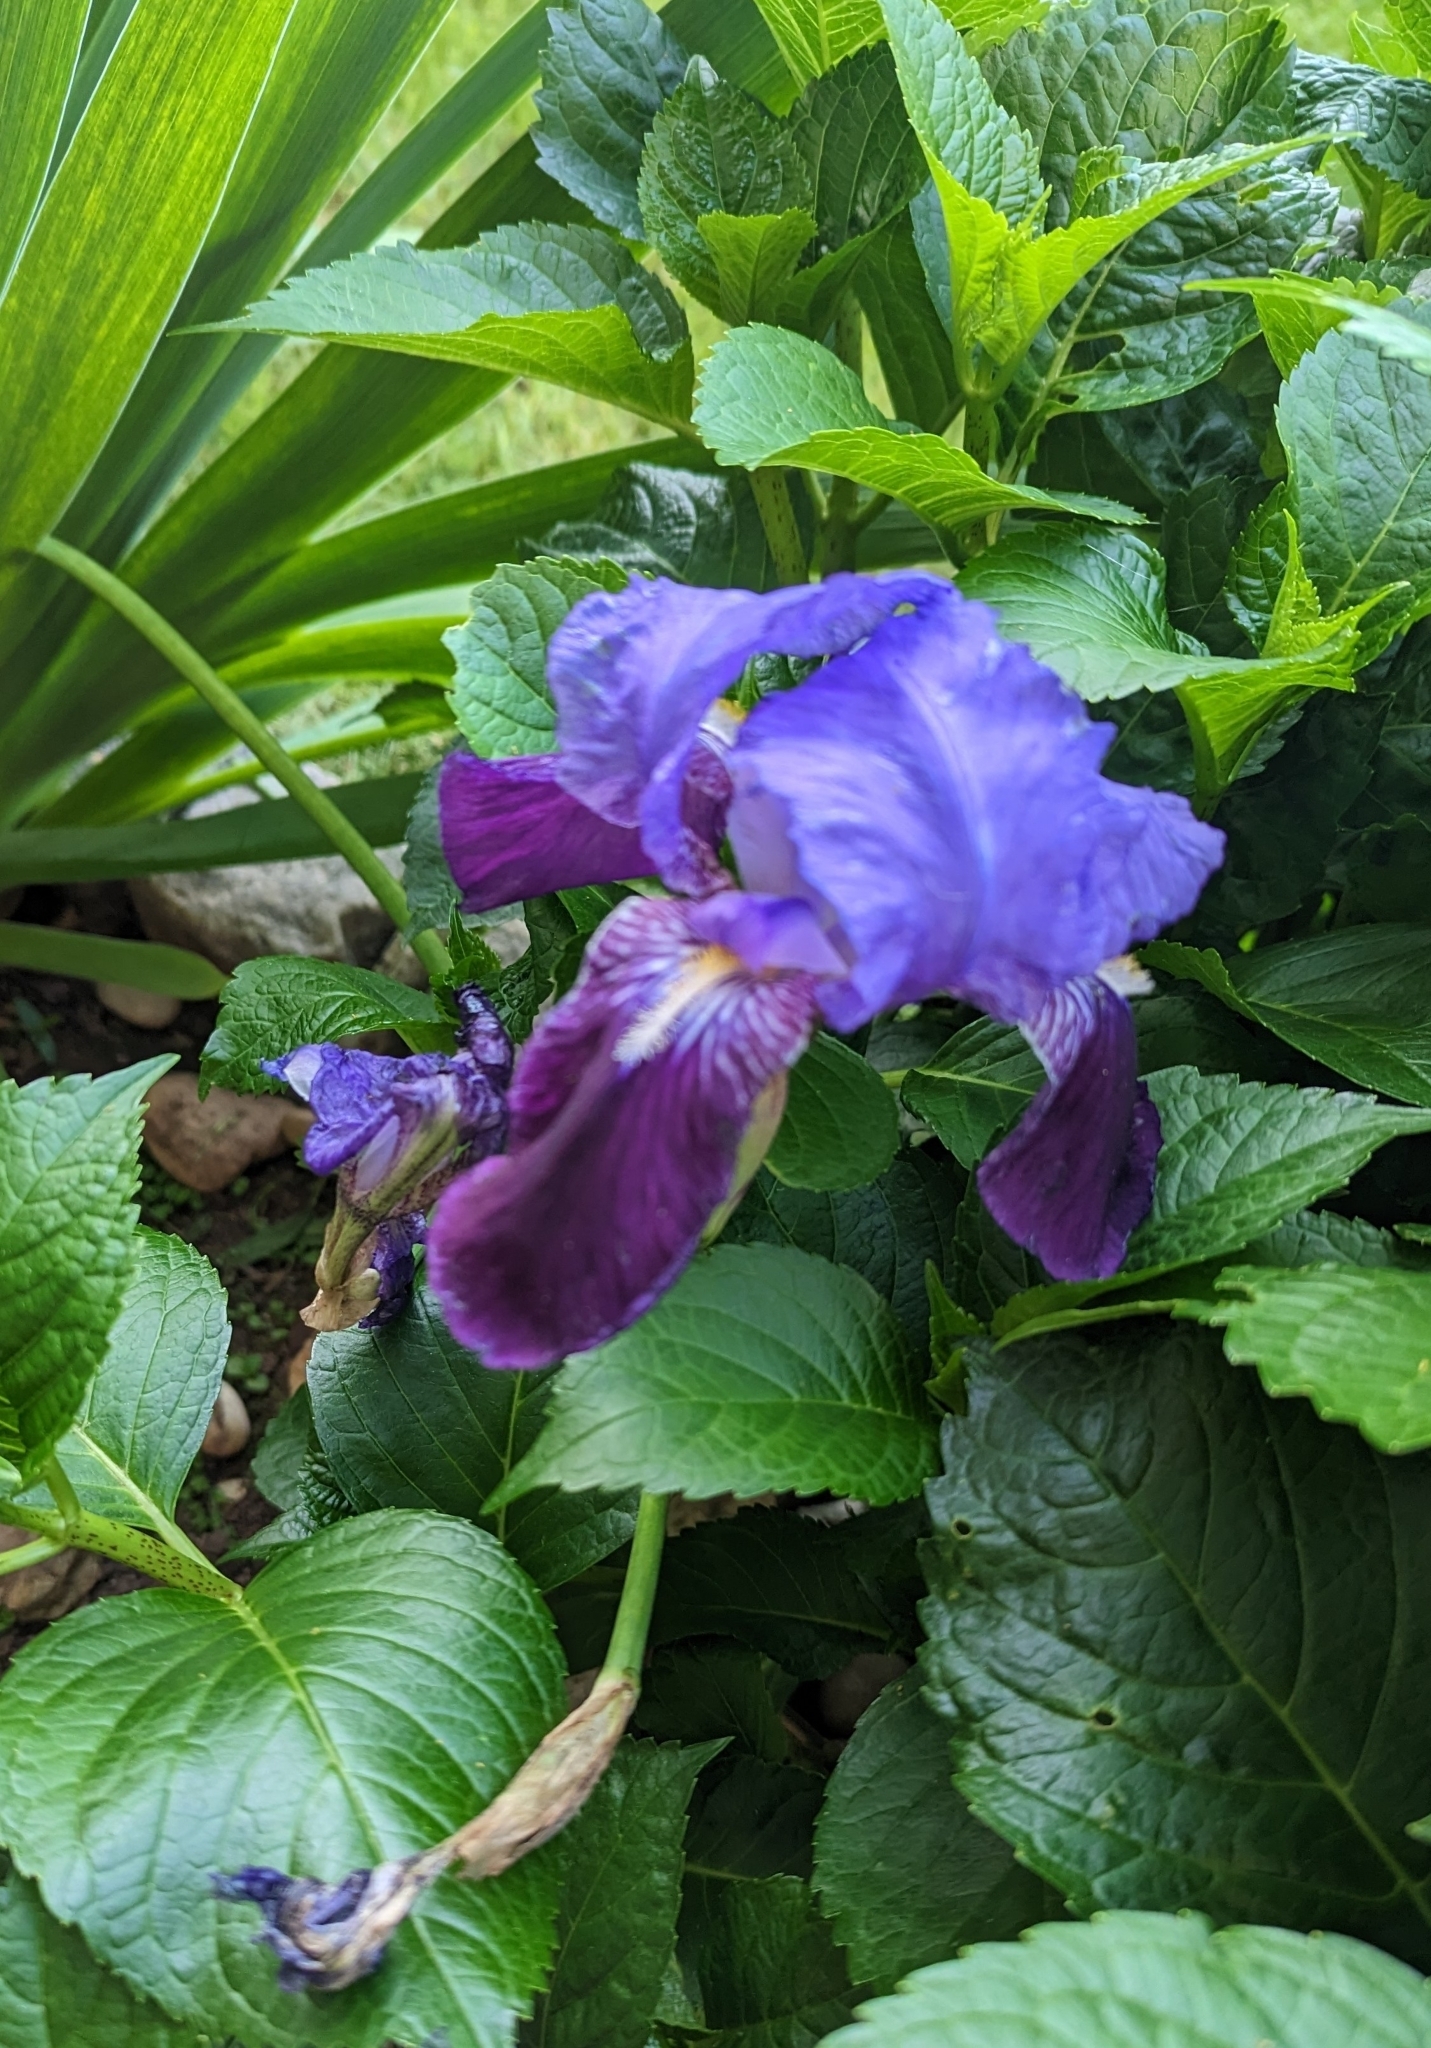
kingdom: Plantae
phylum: Tracheophyta
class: Liliopsida
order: Asparagales
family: Iridaceae
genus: Iris
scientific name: Iris germanica
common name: German iris
